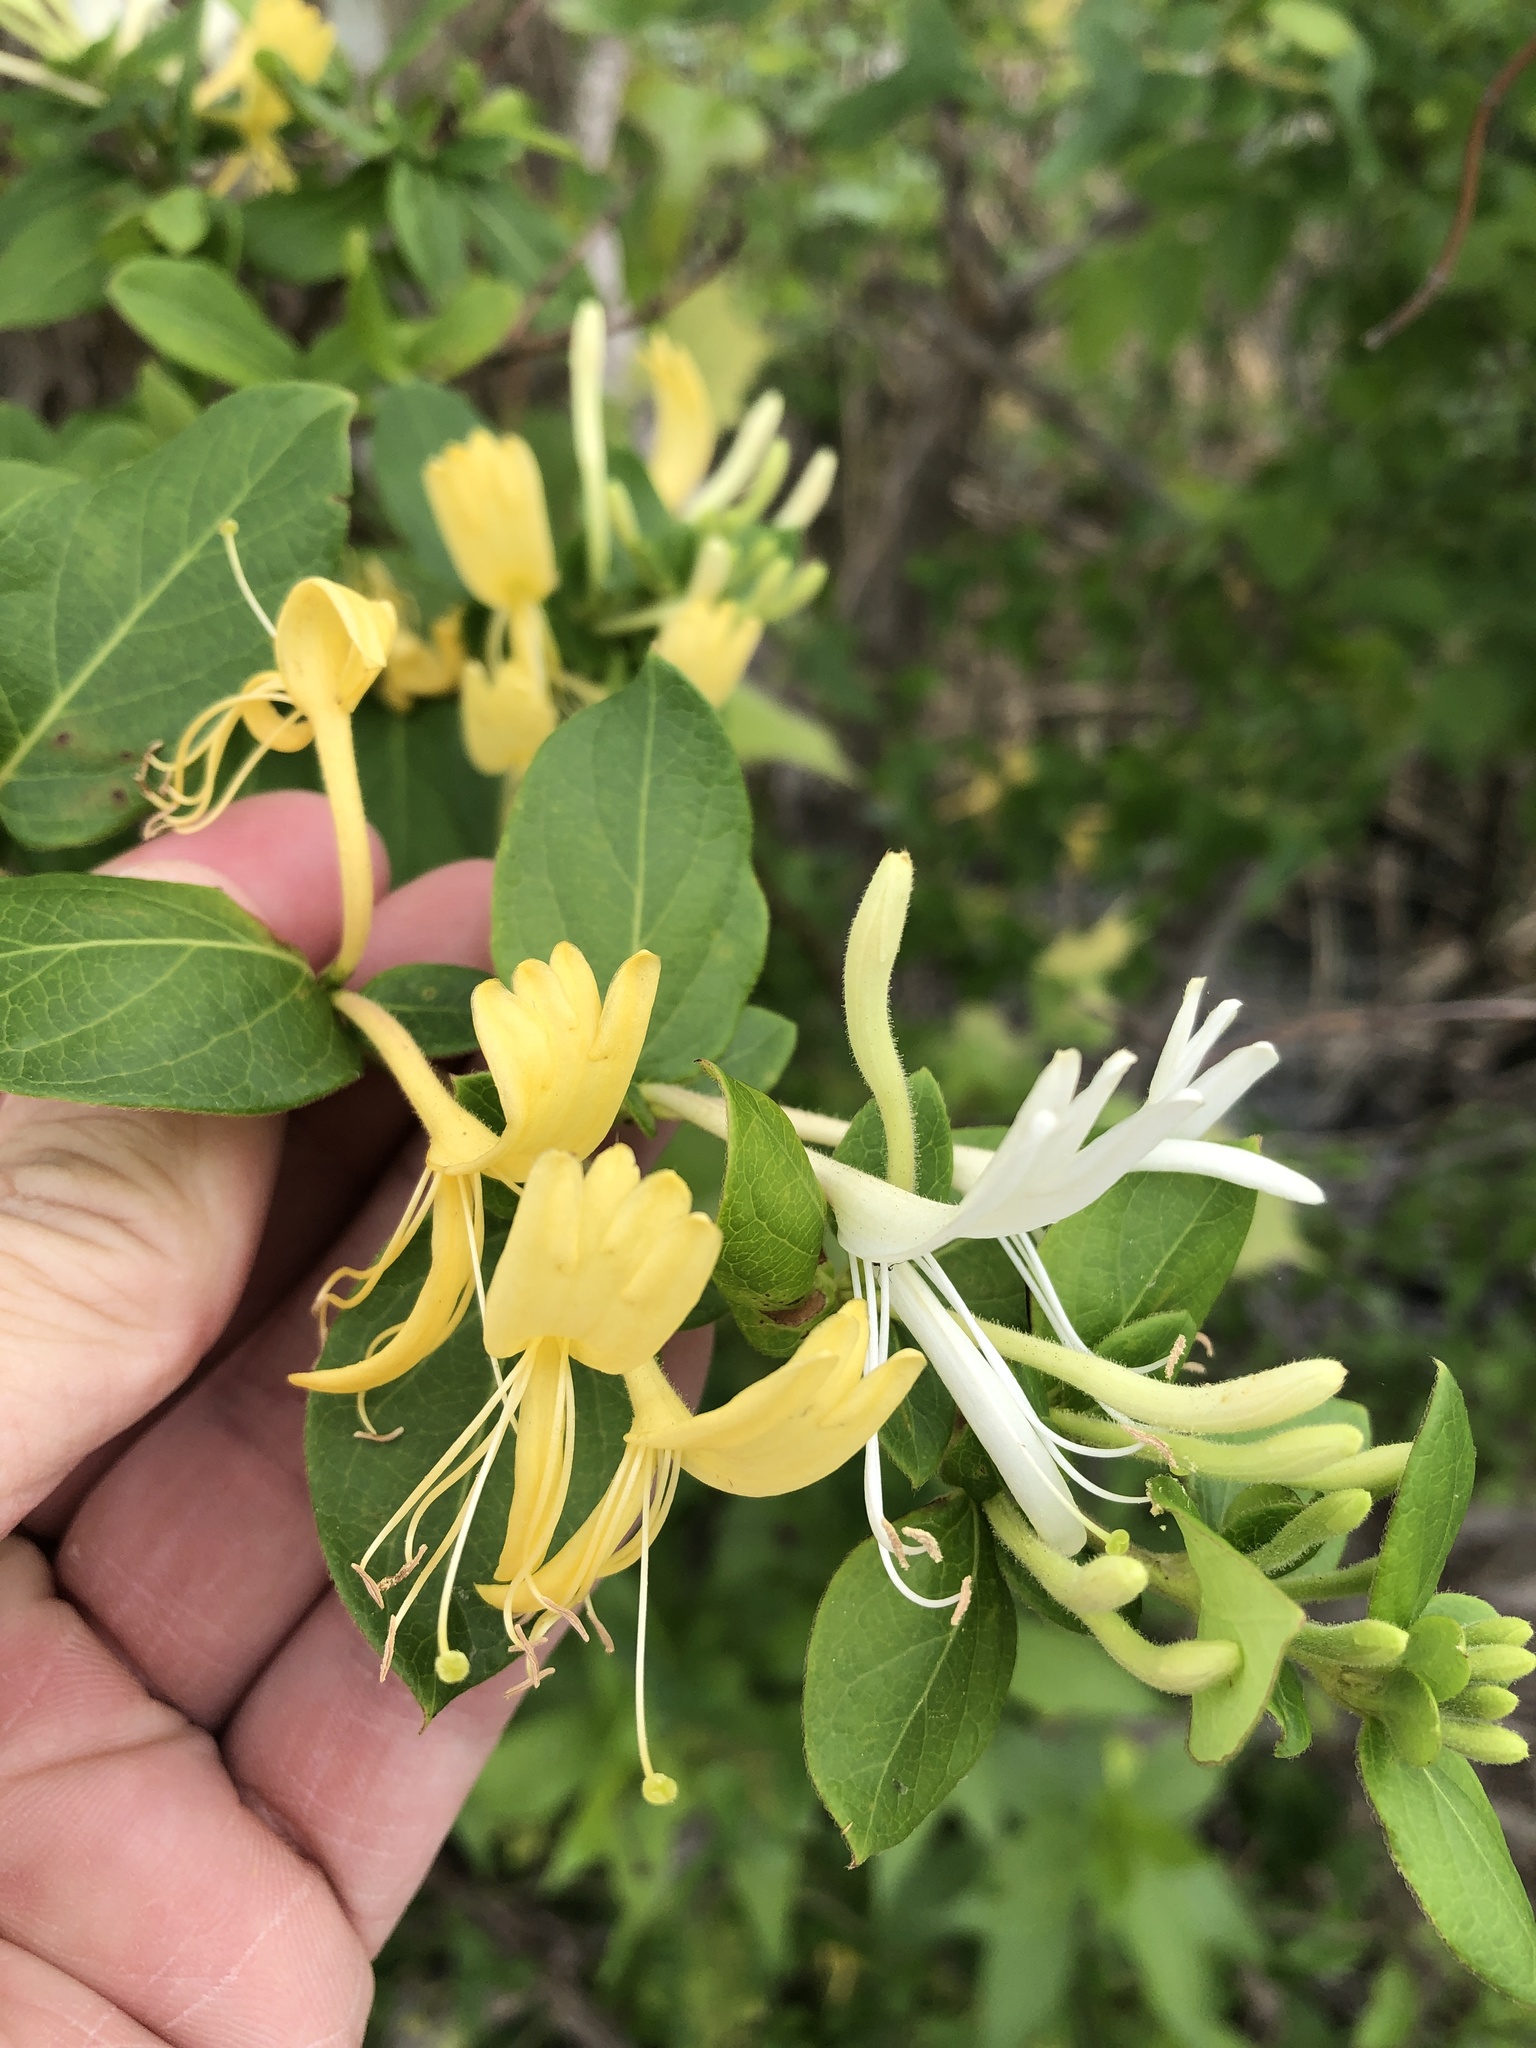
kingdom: Plantae
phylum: Tracheophyta
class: Magnoliopsida
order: Dipsacales
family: Caprifoliaceae
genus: Lonicera
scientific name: Lonicera japonica
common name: Japanese honeysuckle
